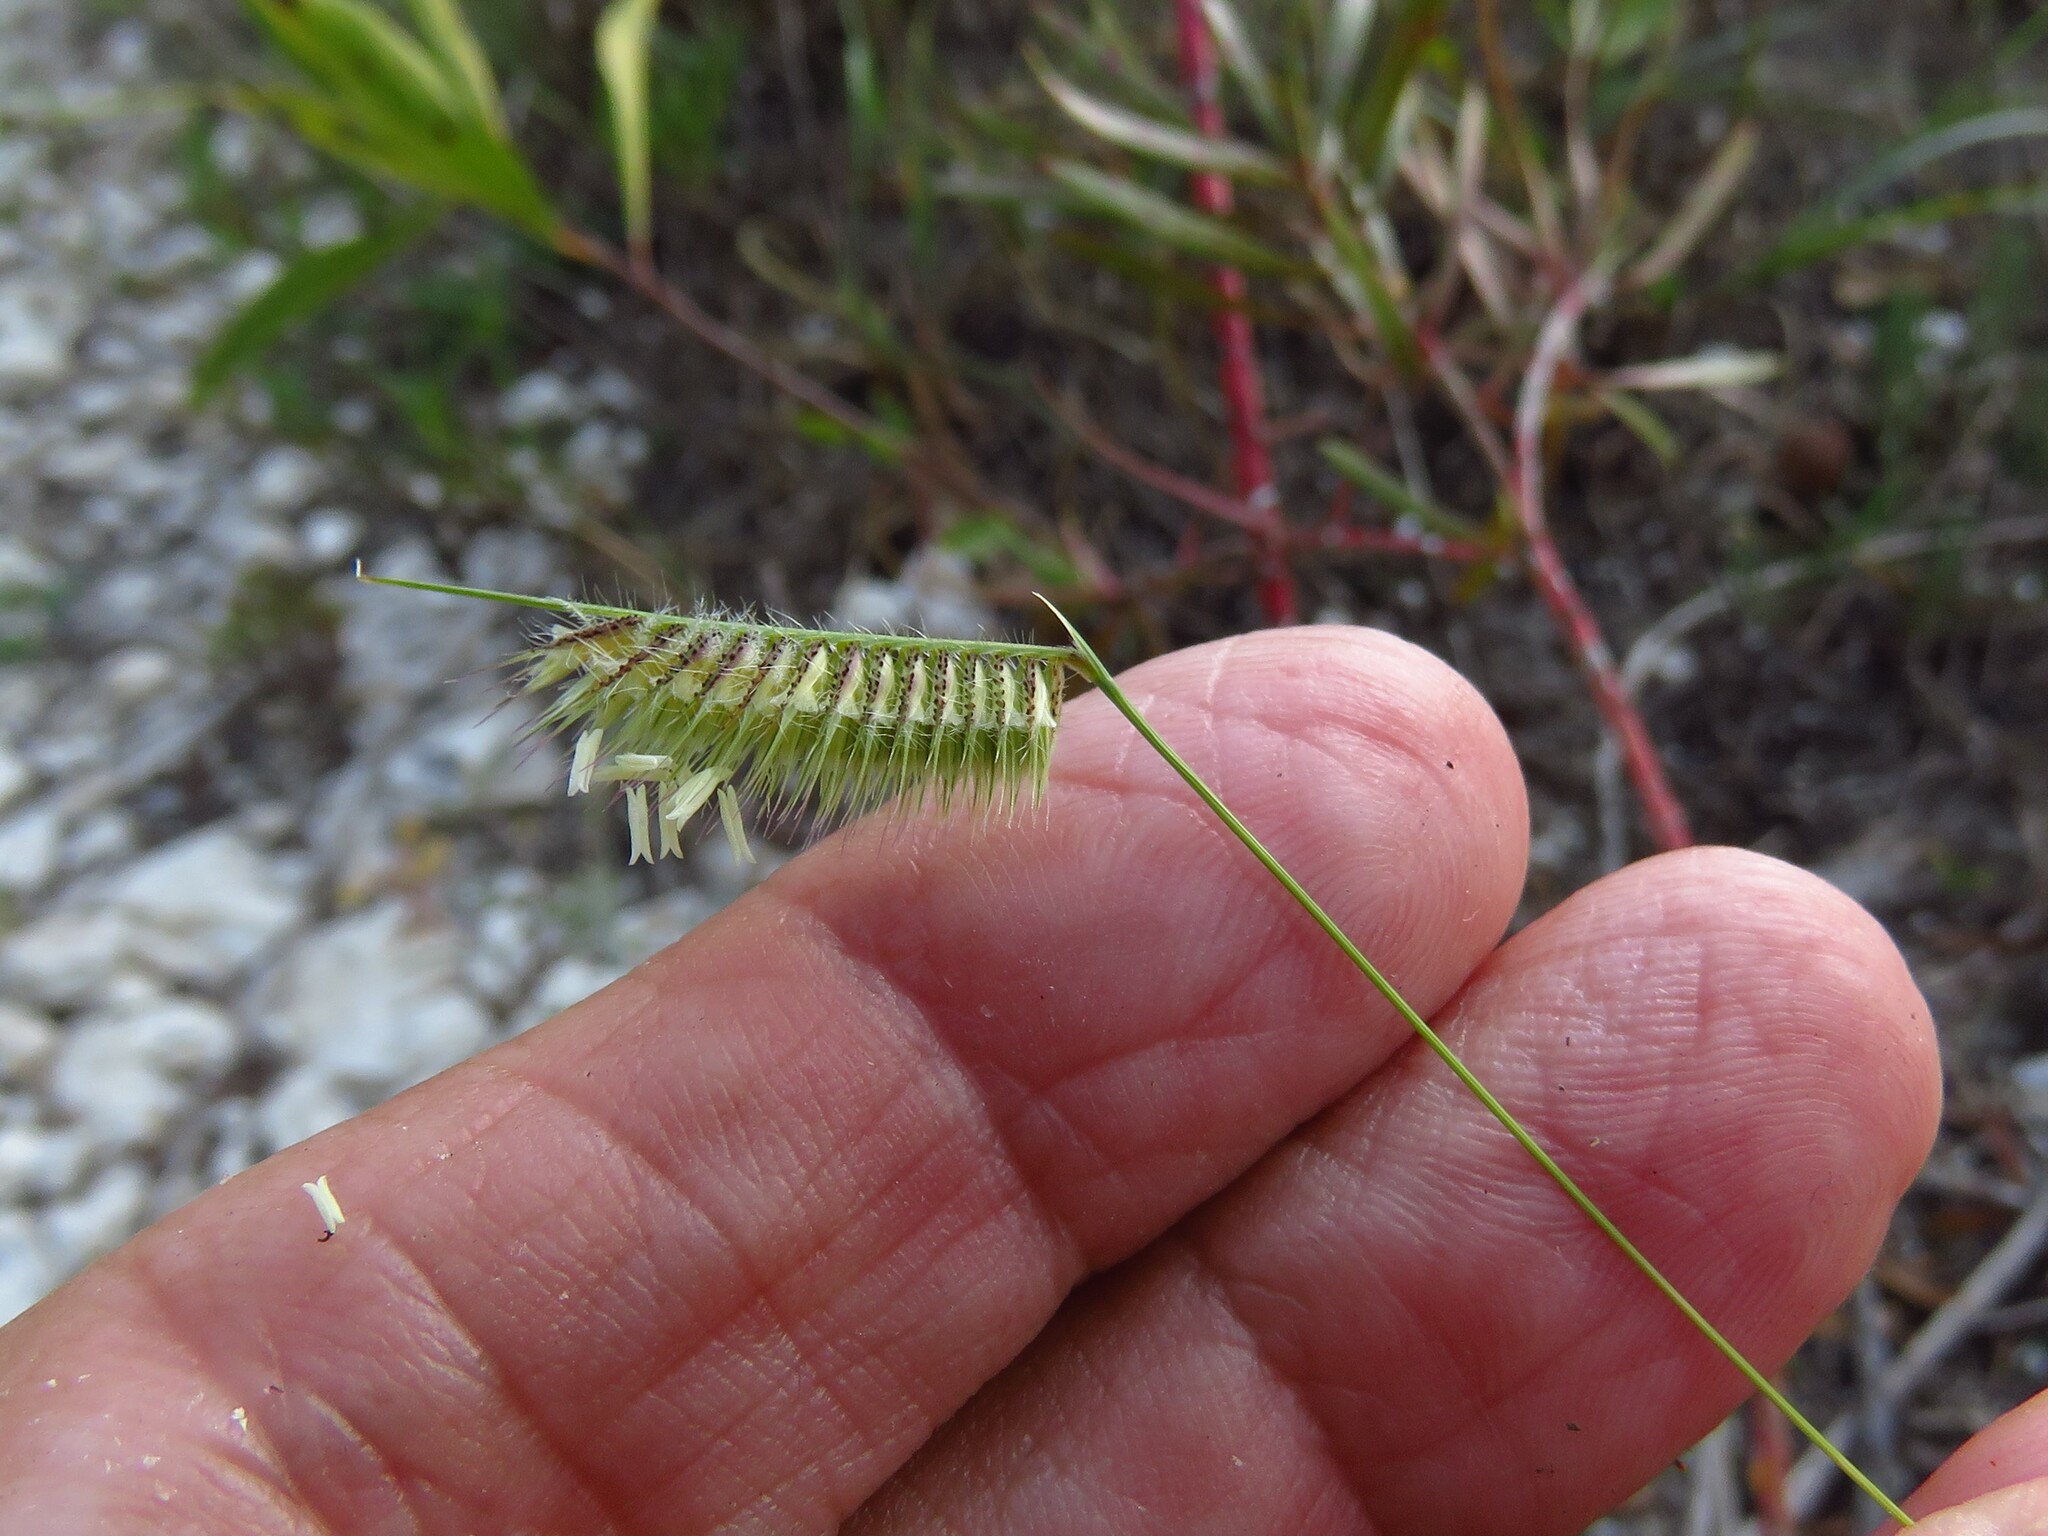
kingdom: Plantae
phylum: Tracheophyta
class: Liliopsida
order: Poales
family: Poaceae
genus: Bouteloua
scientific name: Bouteloua hirsuta
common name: Hairy grama
